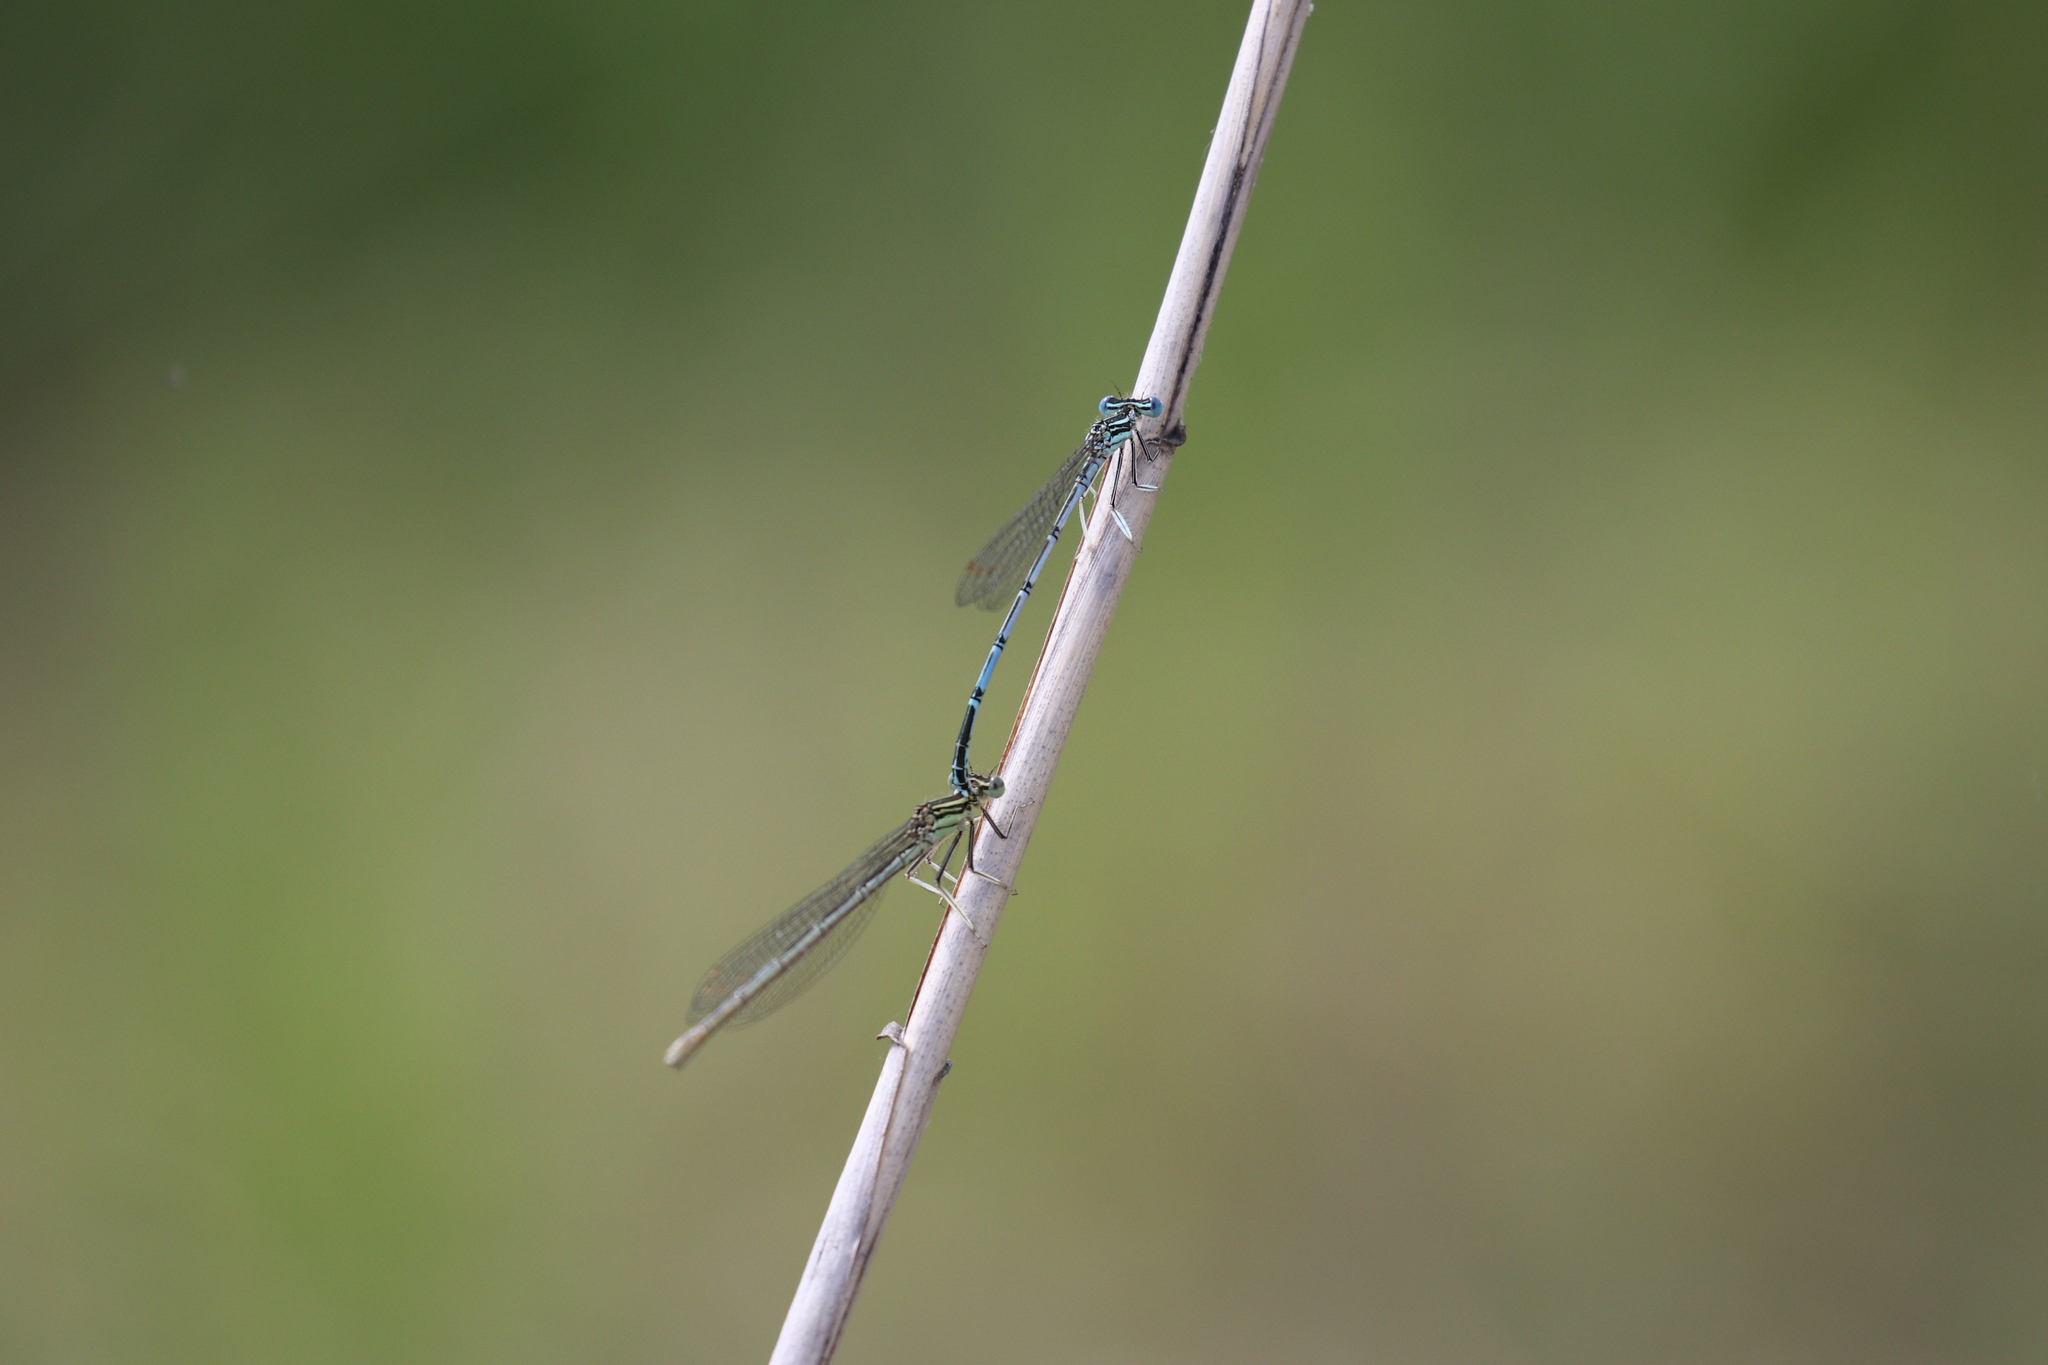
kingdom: Animalia
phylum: Arthropoda
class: Insecta
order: Odonata
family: Platycnemididae
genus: Platycnemis
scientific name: Platycnemis pennipes
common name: White-legged damselfly
